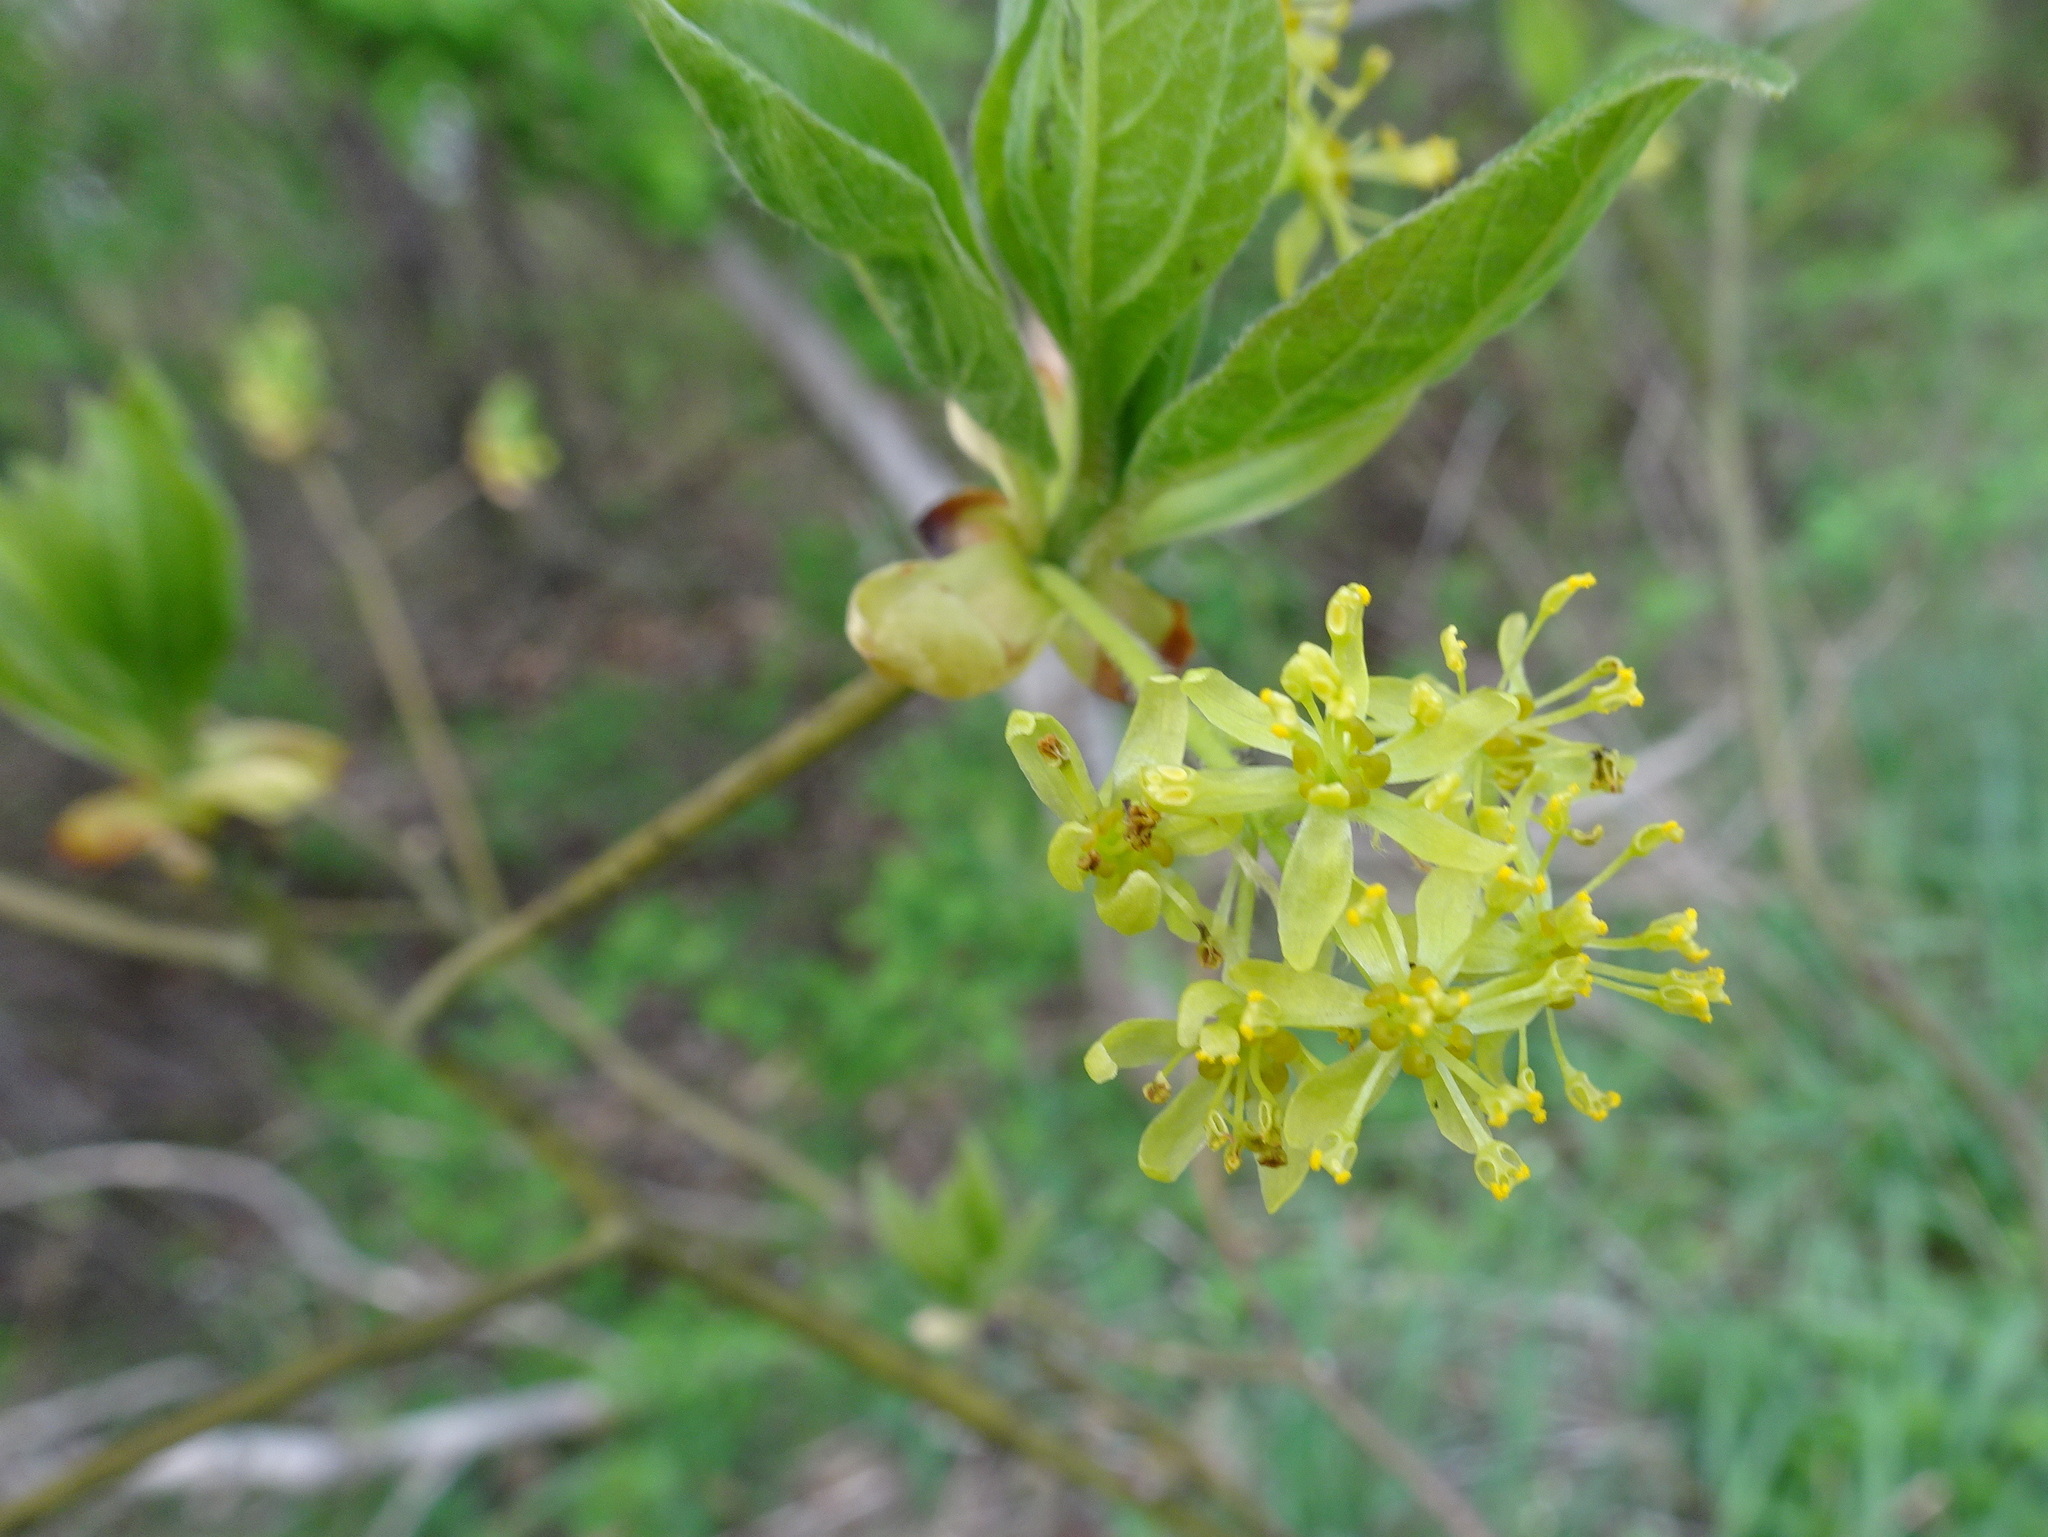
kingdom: Plantae
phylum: Tracheophyta
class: Magnoliopsida
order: Laurales
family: Lauraceae
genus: Sassafras
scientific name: Sassafras albidum
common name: Sassafras
